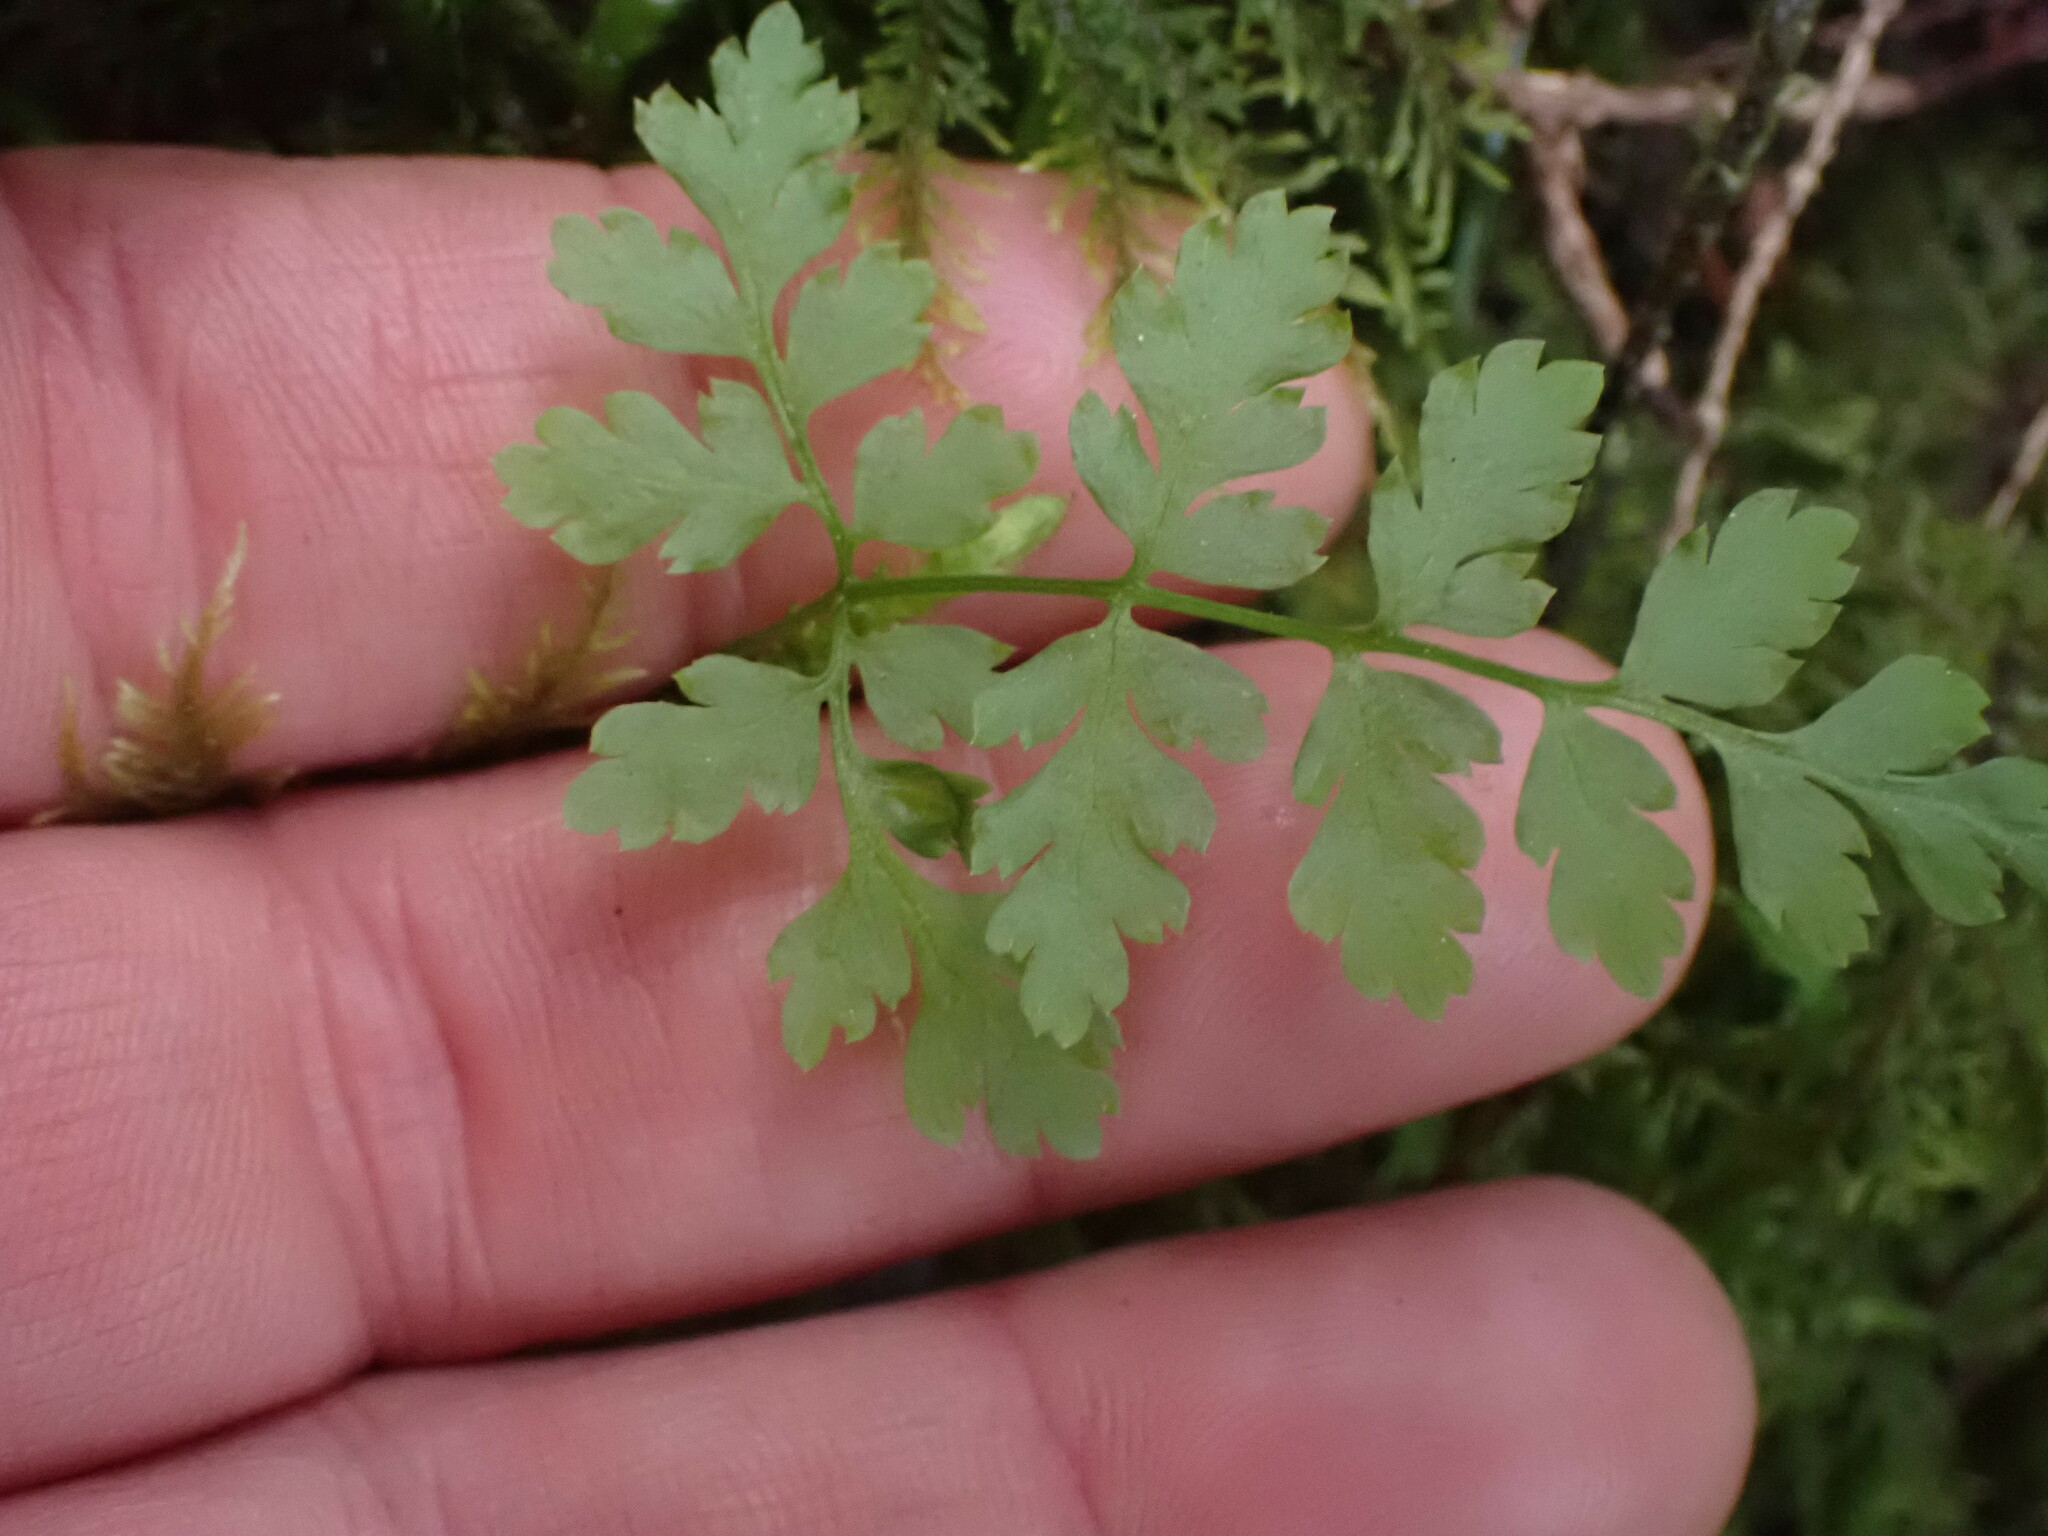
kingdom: Plantae
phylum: Tracheophyta
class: Polypodiopsida
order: Polypodiales
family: Dryopteridaceae
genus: Dryopteris
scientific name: Dryopteris expansa
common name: Northern buckler fern
